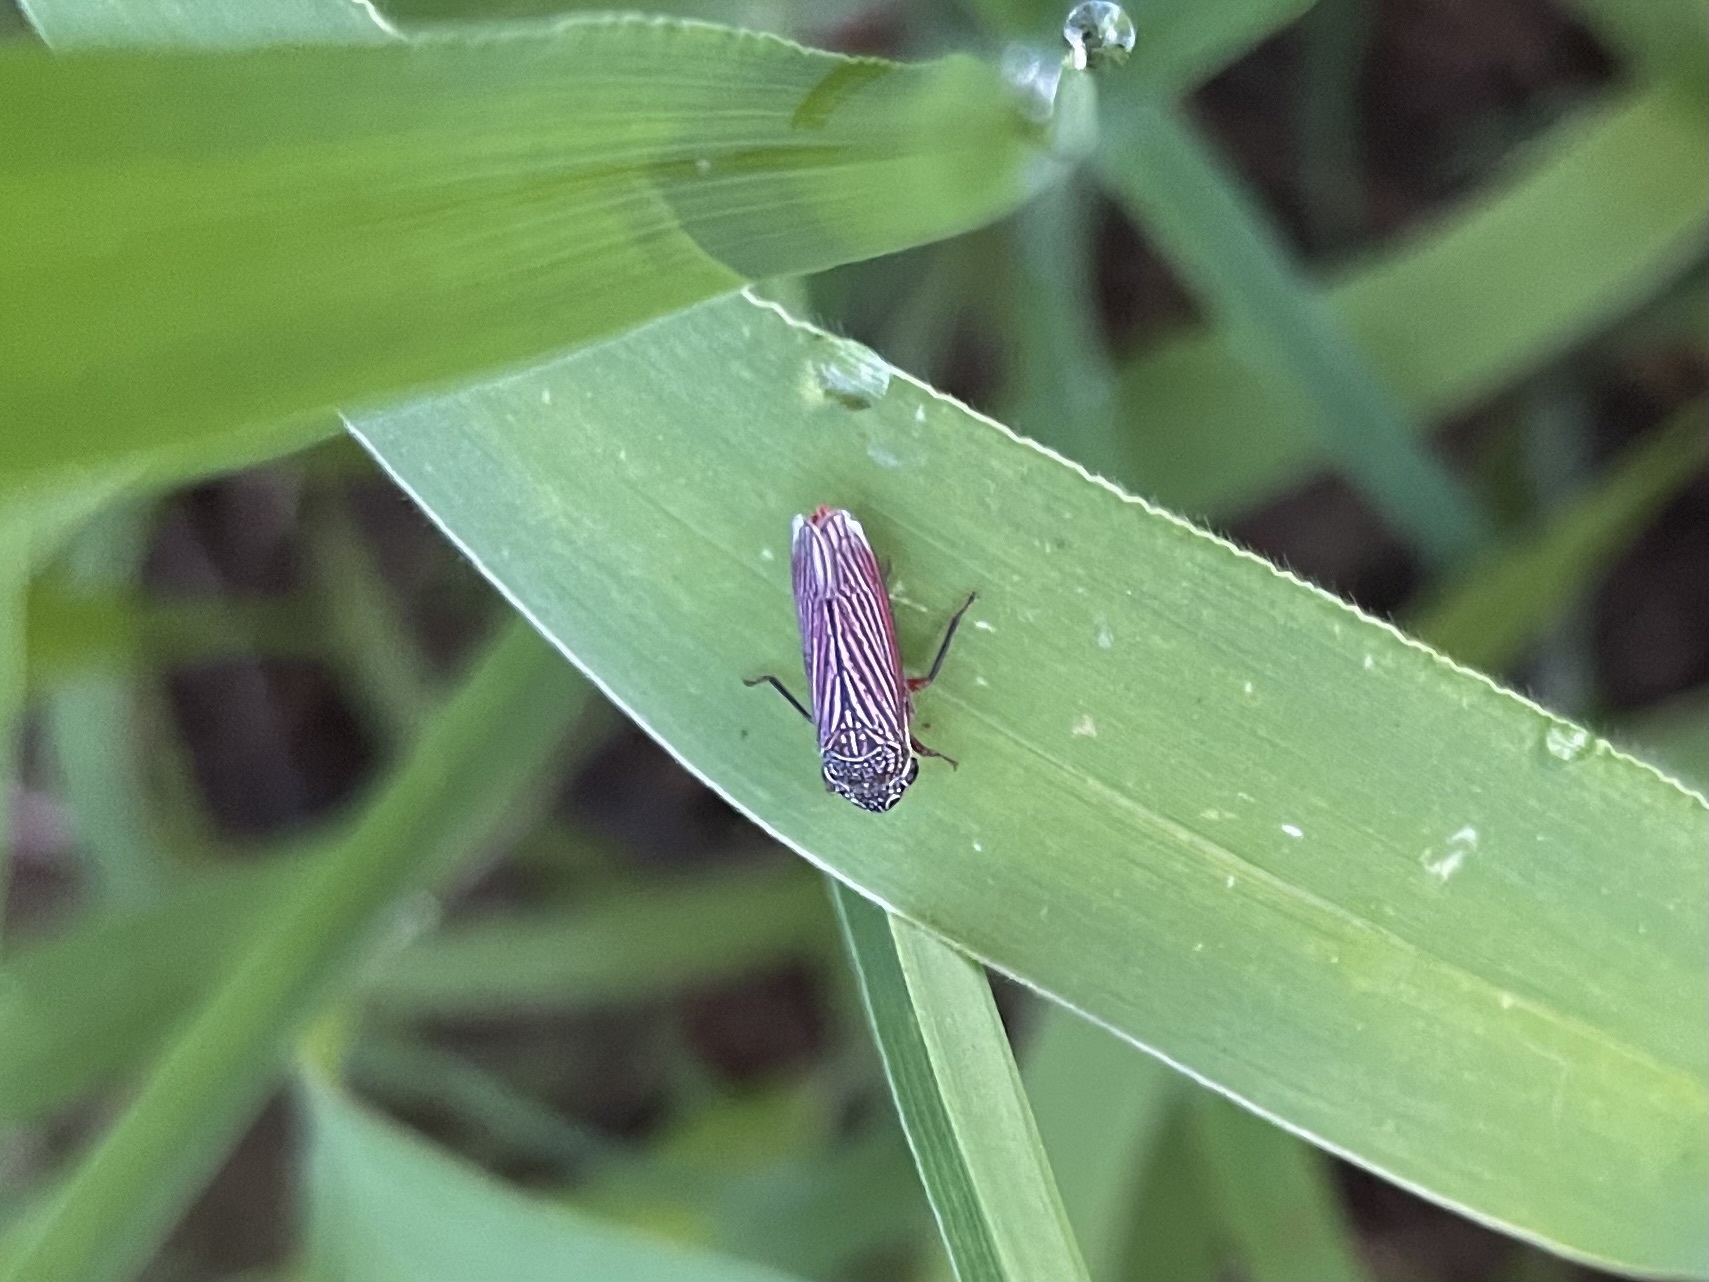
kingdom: Animalia
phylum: Arthropoda
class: Insecta
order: Hemiptera
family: Cicadellidae
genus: Cuerna
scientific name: Cuerna costalis
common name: Lateral-lined sharpshooter
